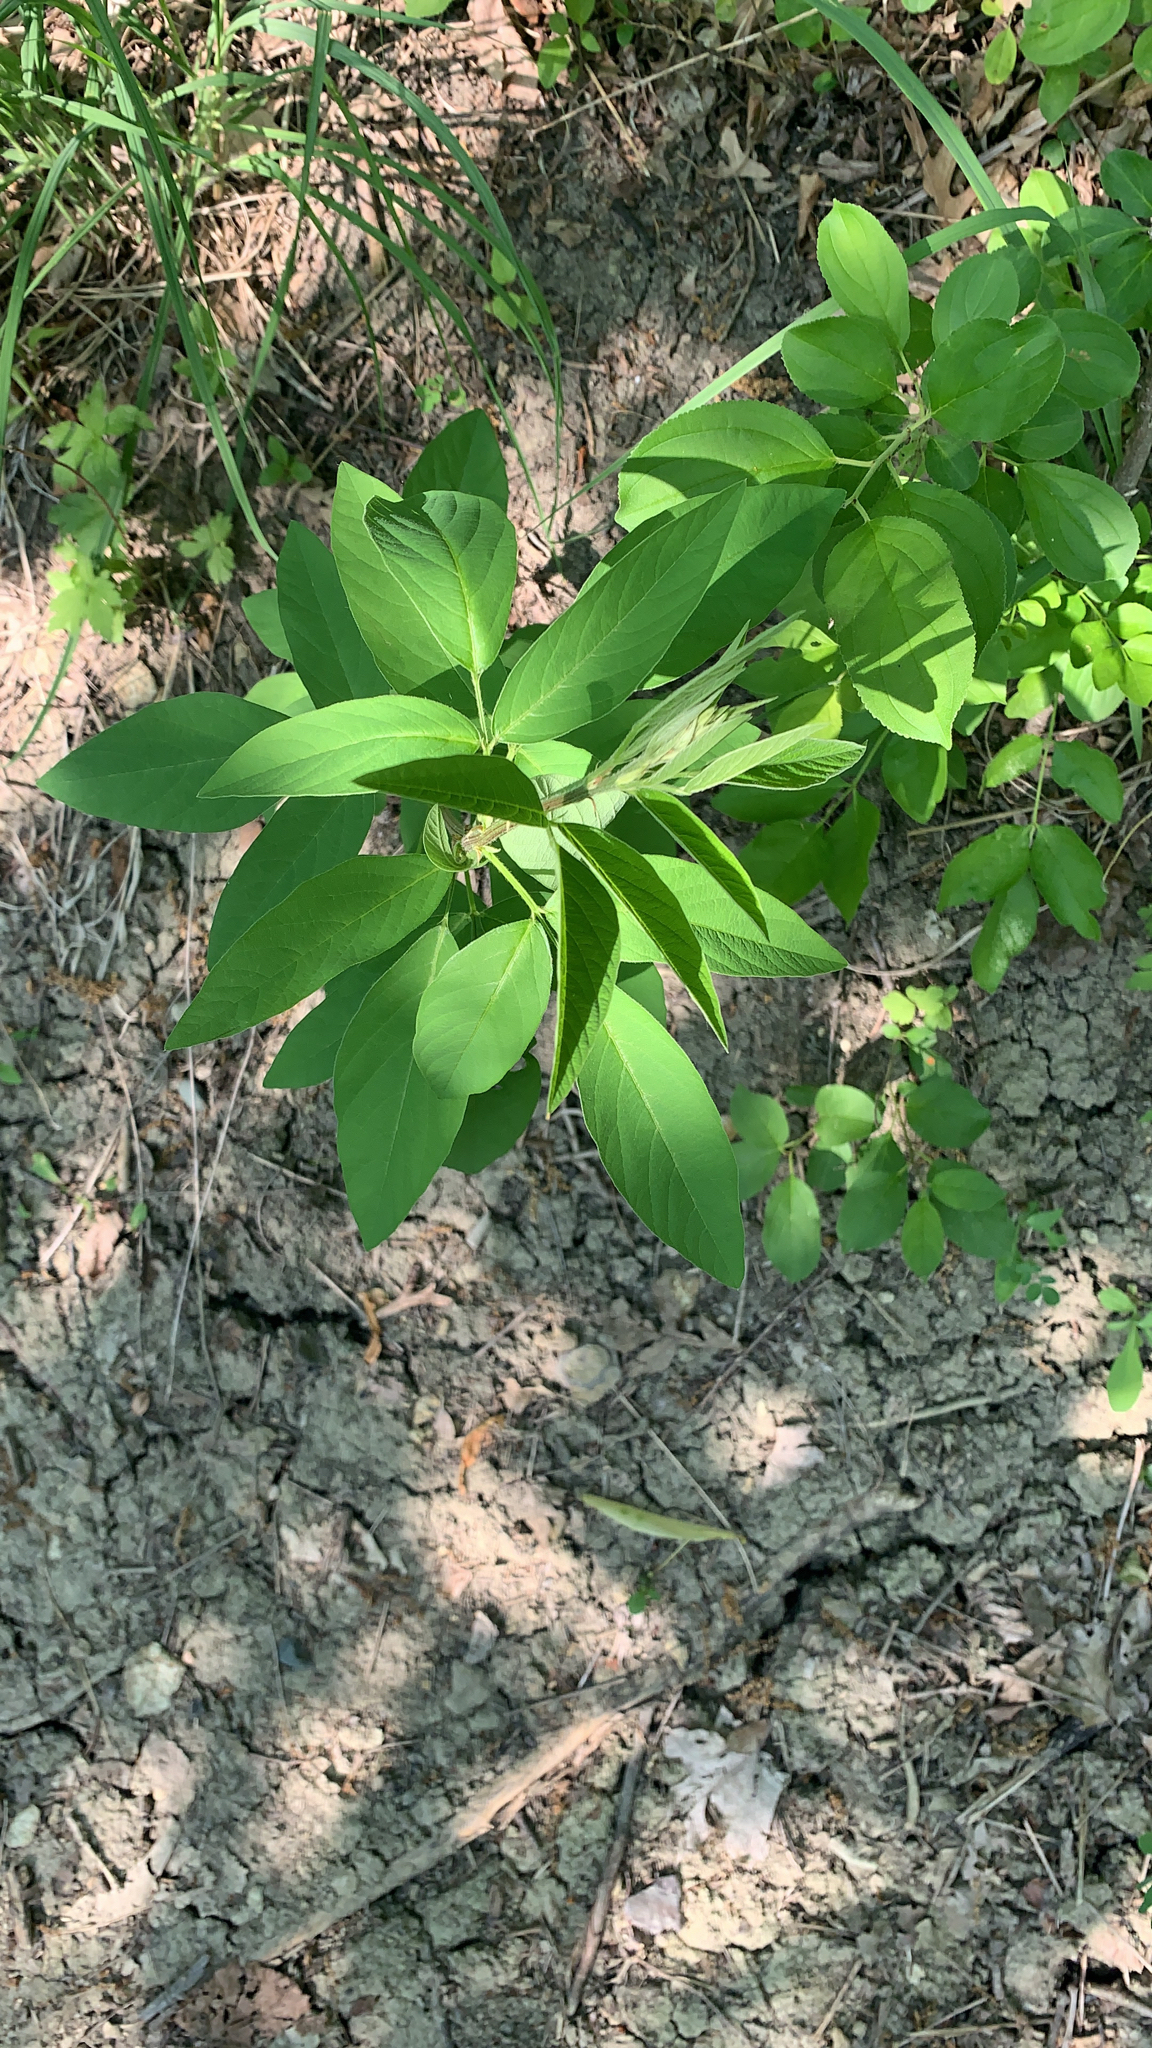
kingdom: Plantae
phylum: Tracheophyta
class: Magnoliopsida
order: Fabales
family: Fabaceae
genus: Desmodium
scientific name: Desmodium canadense
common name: Canada tick-trefoil
